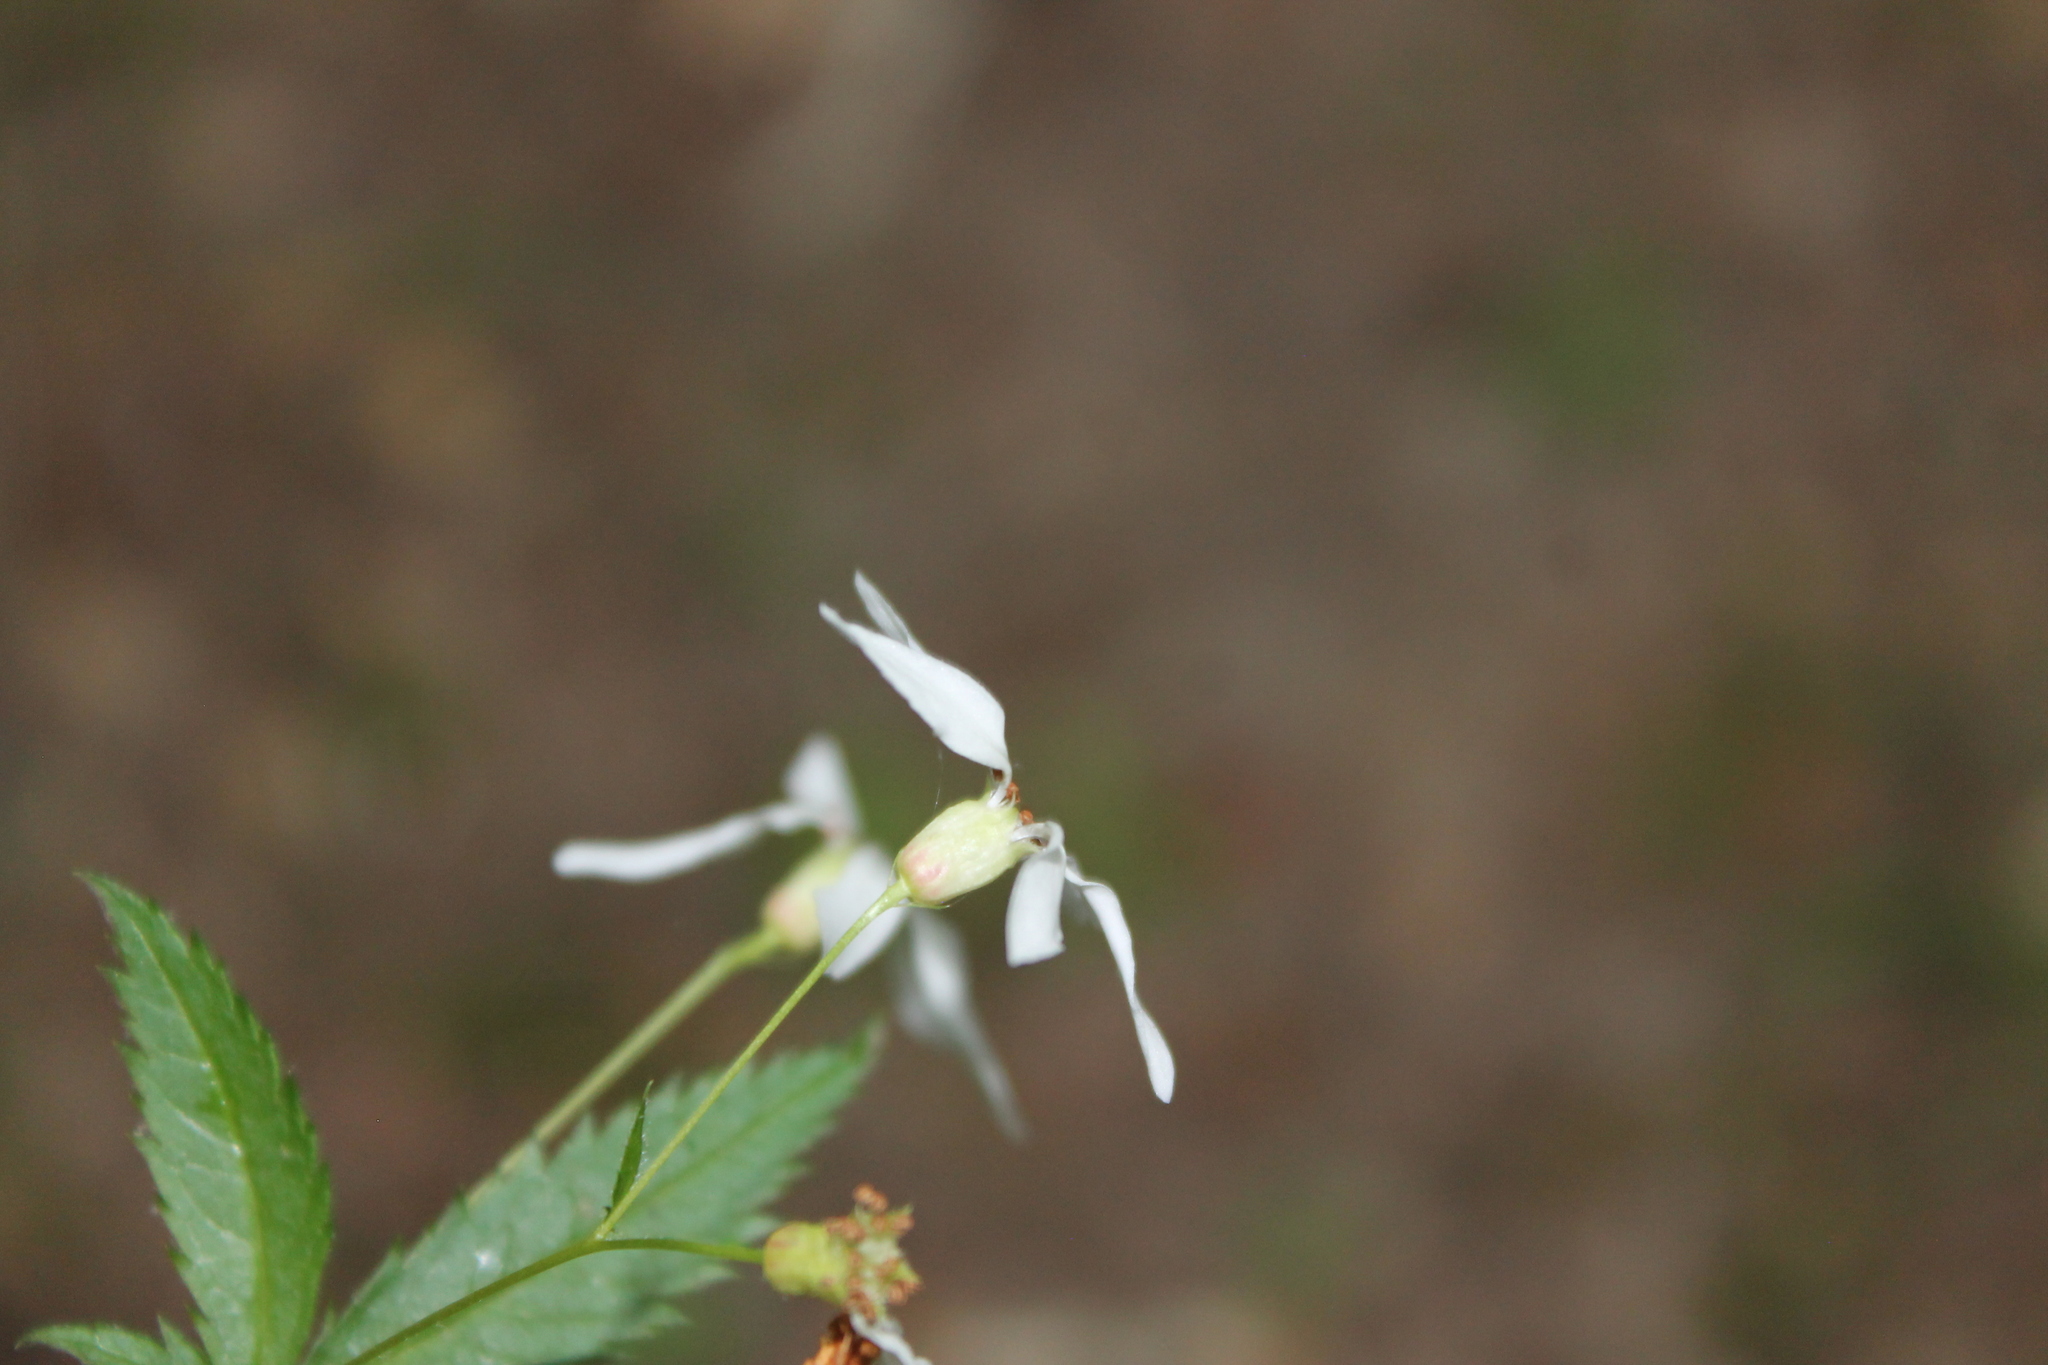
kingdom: Plantae
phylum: Tracheophyta
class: Magnoliopsida
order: Rosales
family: Rosaceae
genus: Gillenia
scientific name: Gillenia stipulata
